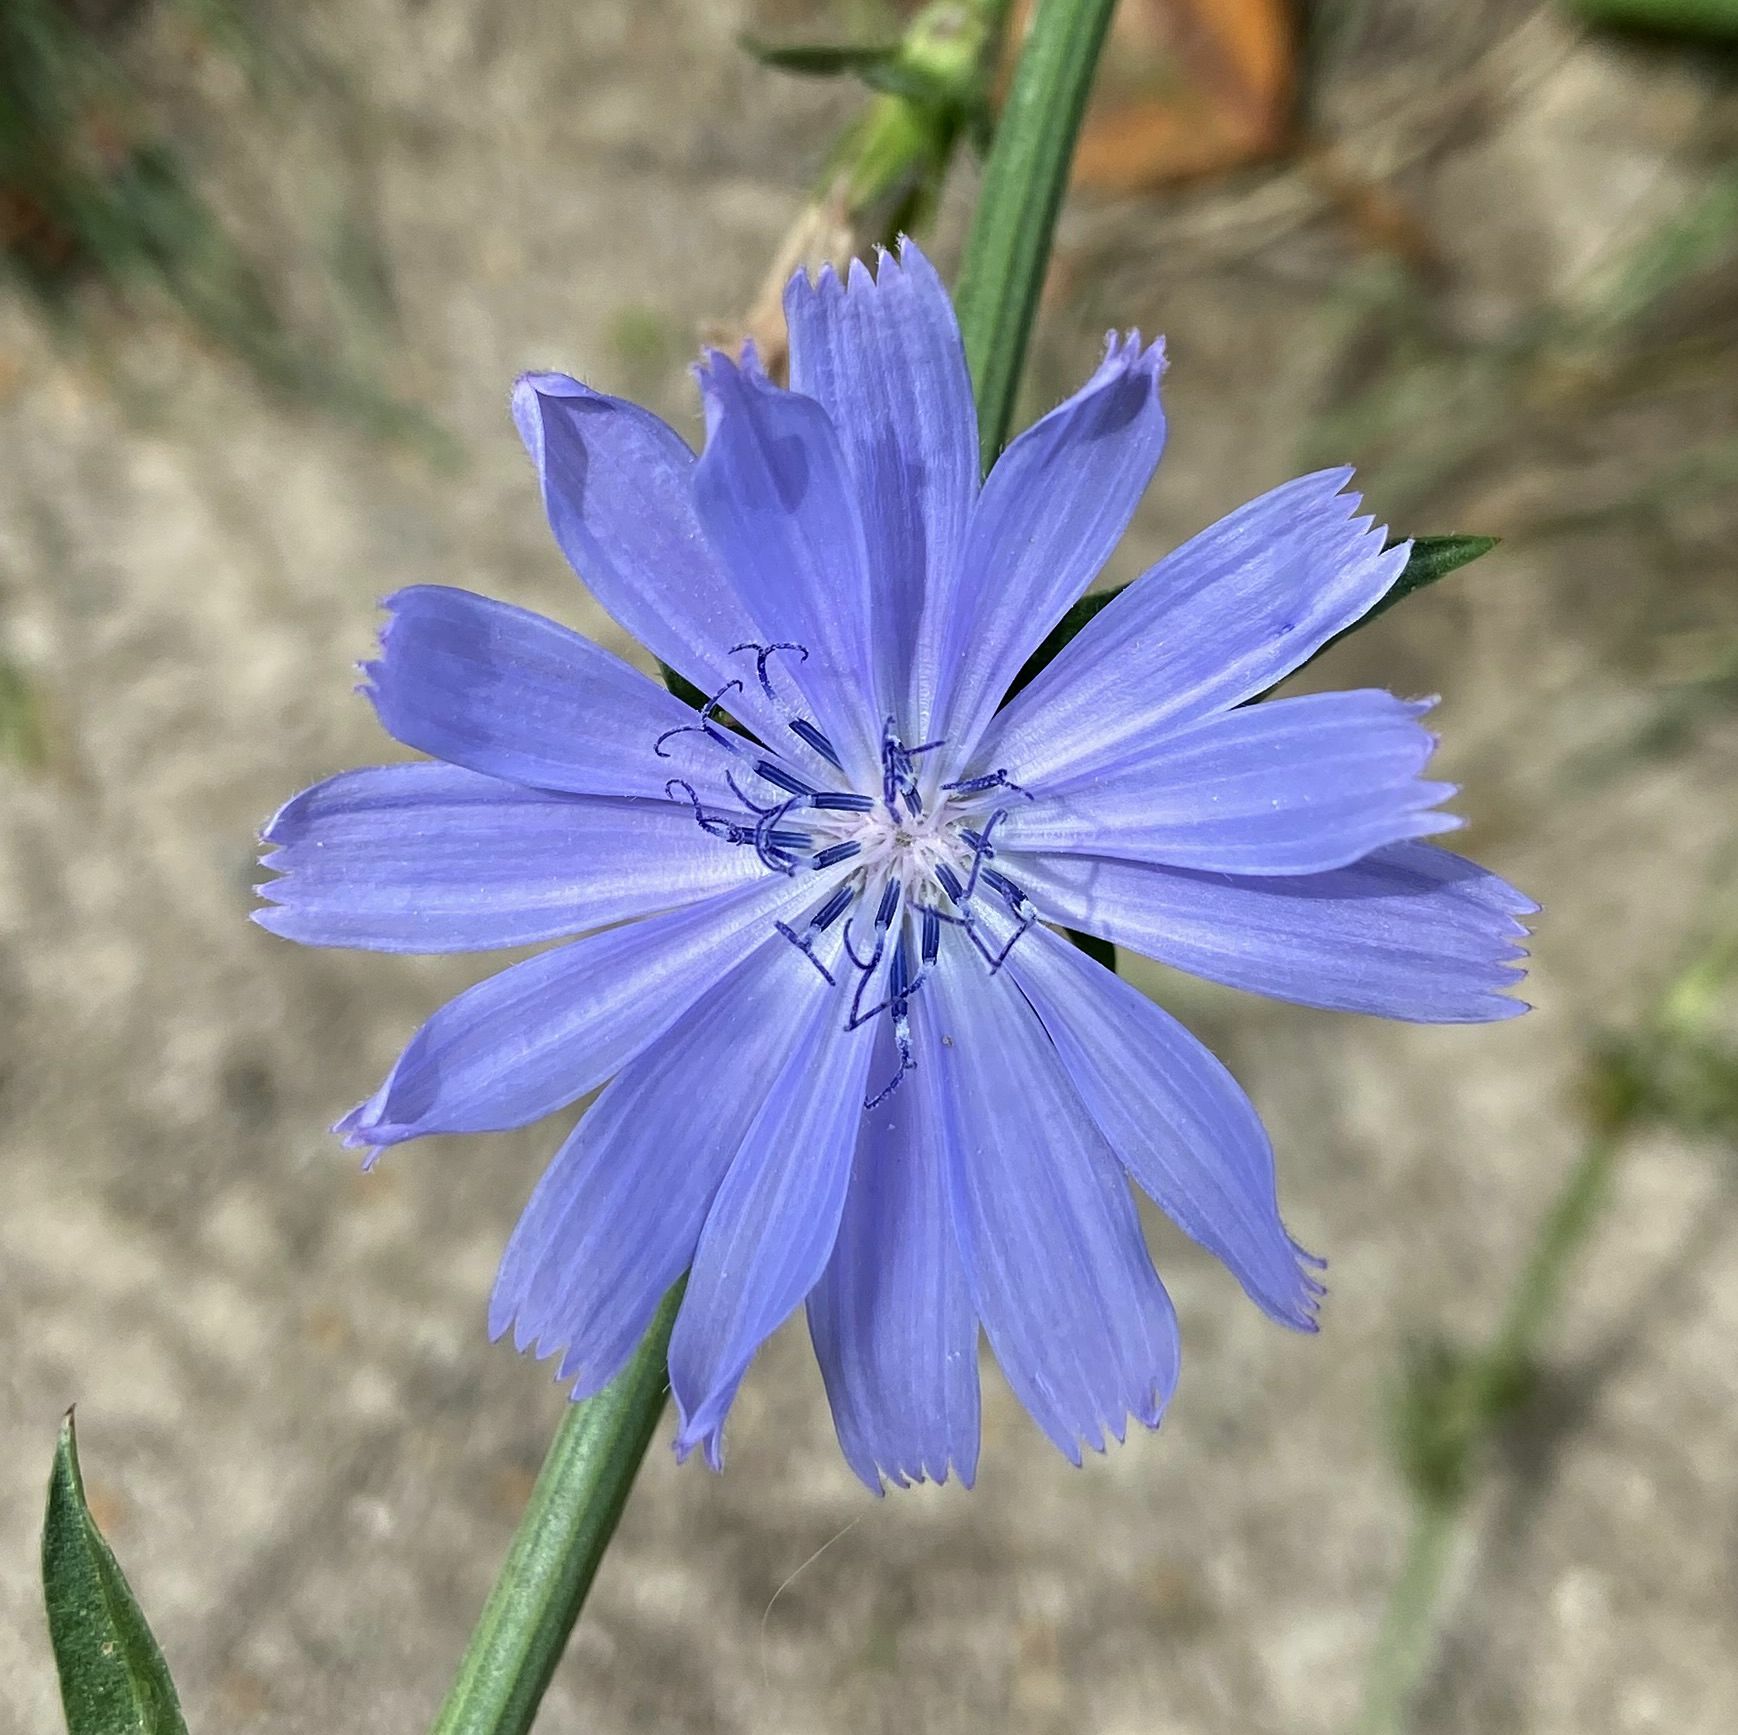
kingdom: Plantae
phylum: Tracheophyta
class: Magnoliopsida
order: Asterales
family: Asteraceae
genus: Cichorium
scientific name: Cichorium intybus
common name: Chicory
